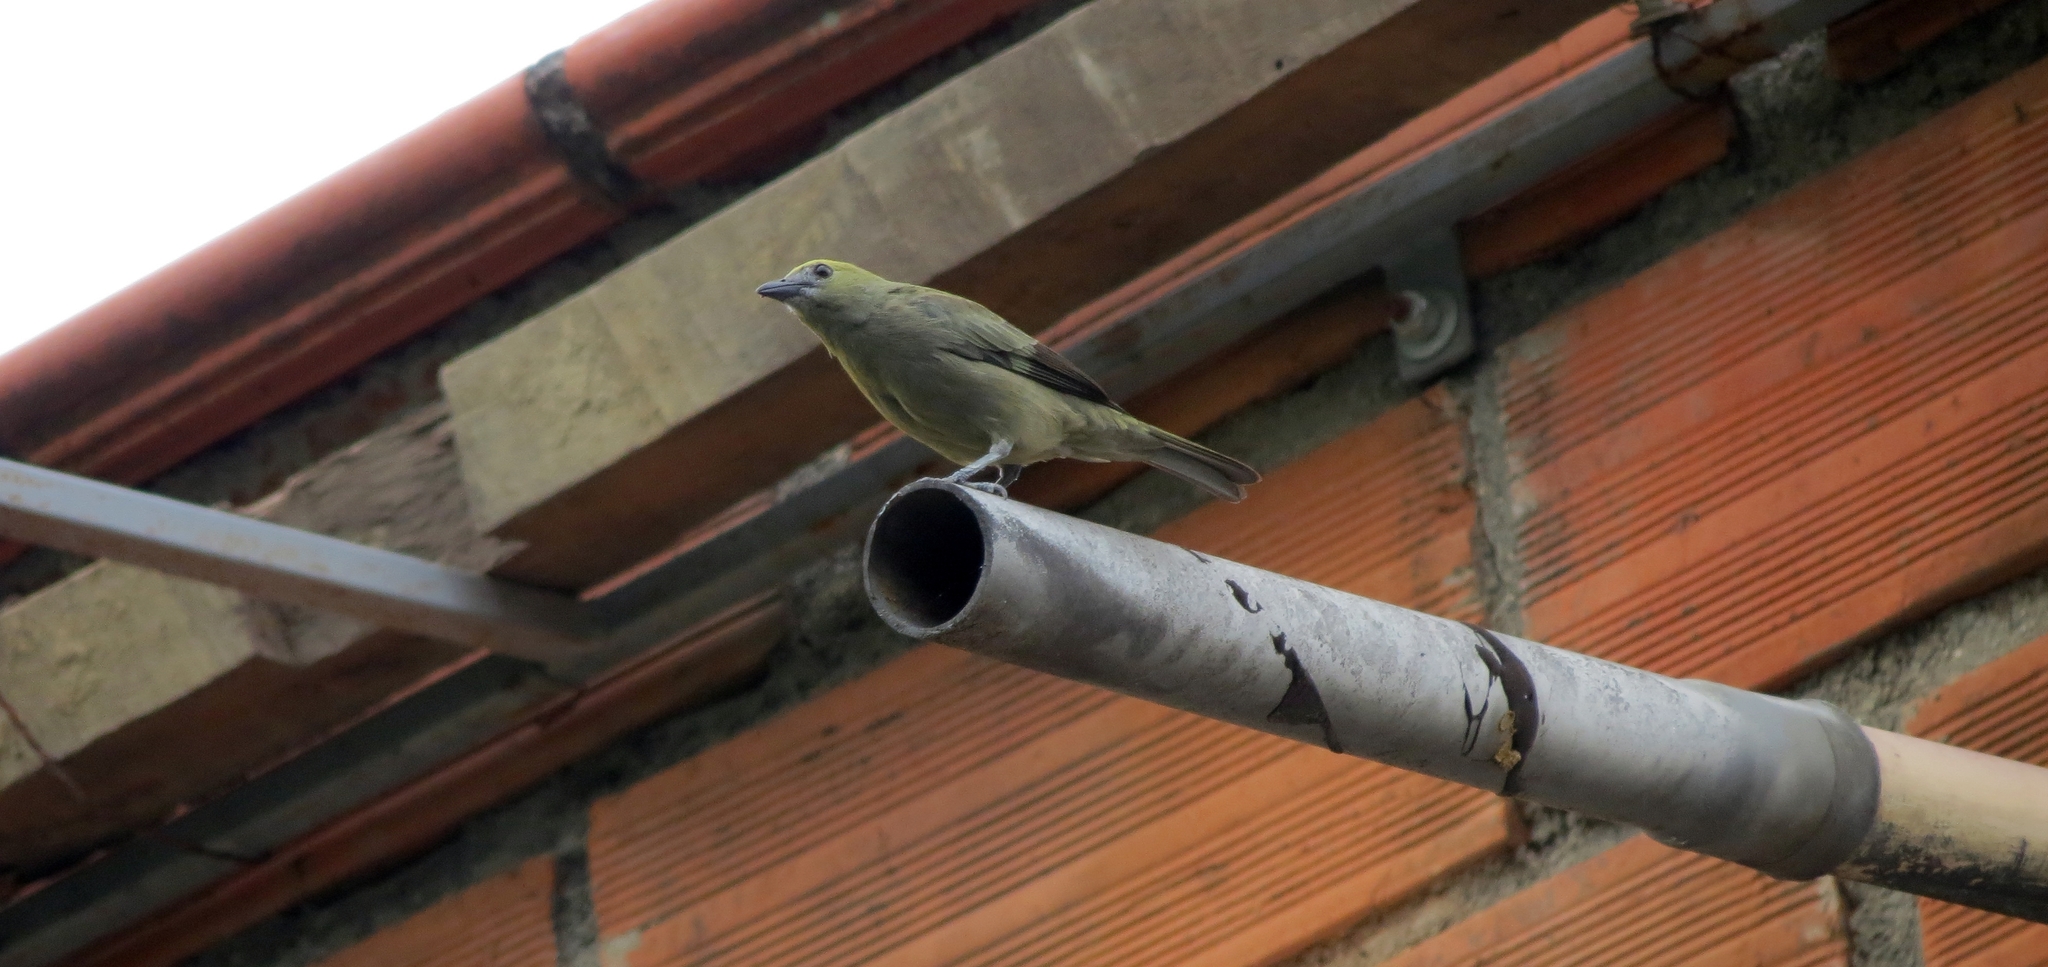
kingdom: Animalia
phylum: Chordata
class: Aves
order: Passeriformes
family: Thraupidae
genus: Thraupis
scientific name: Thraupis palmarum
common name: Palm tanager
